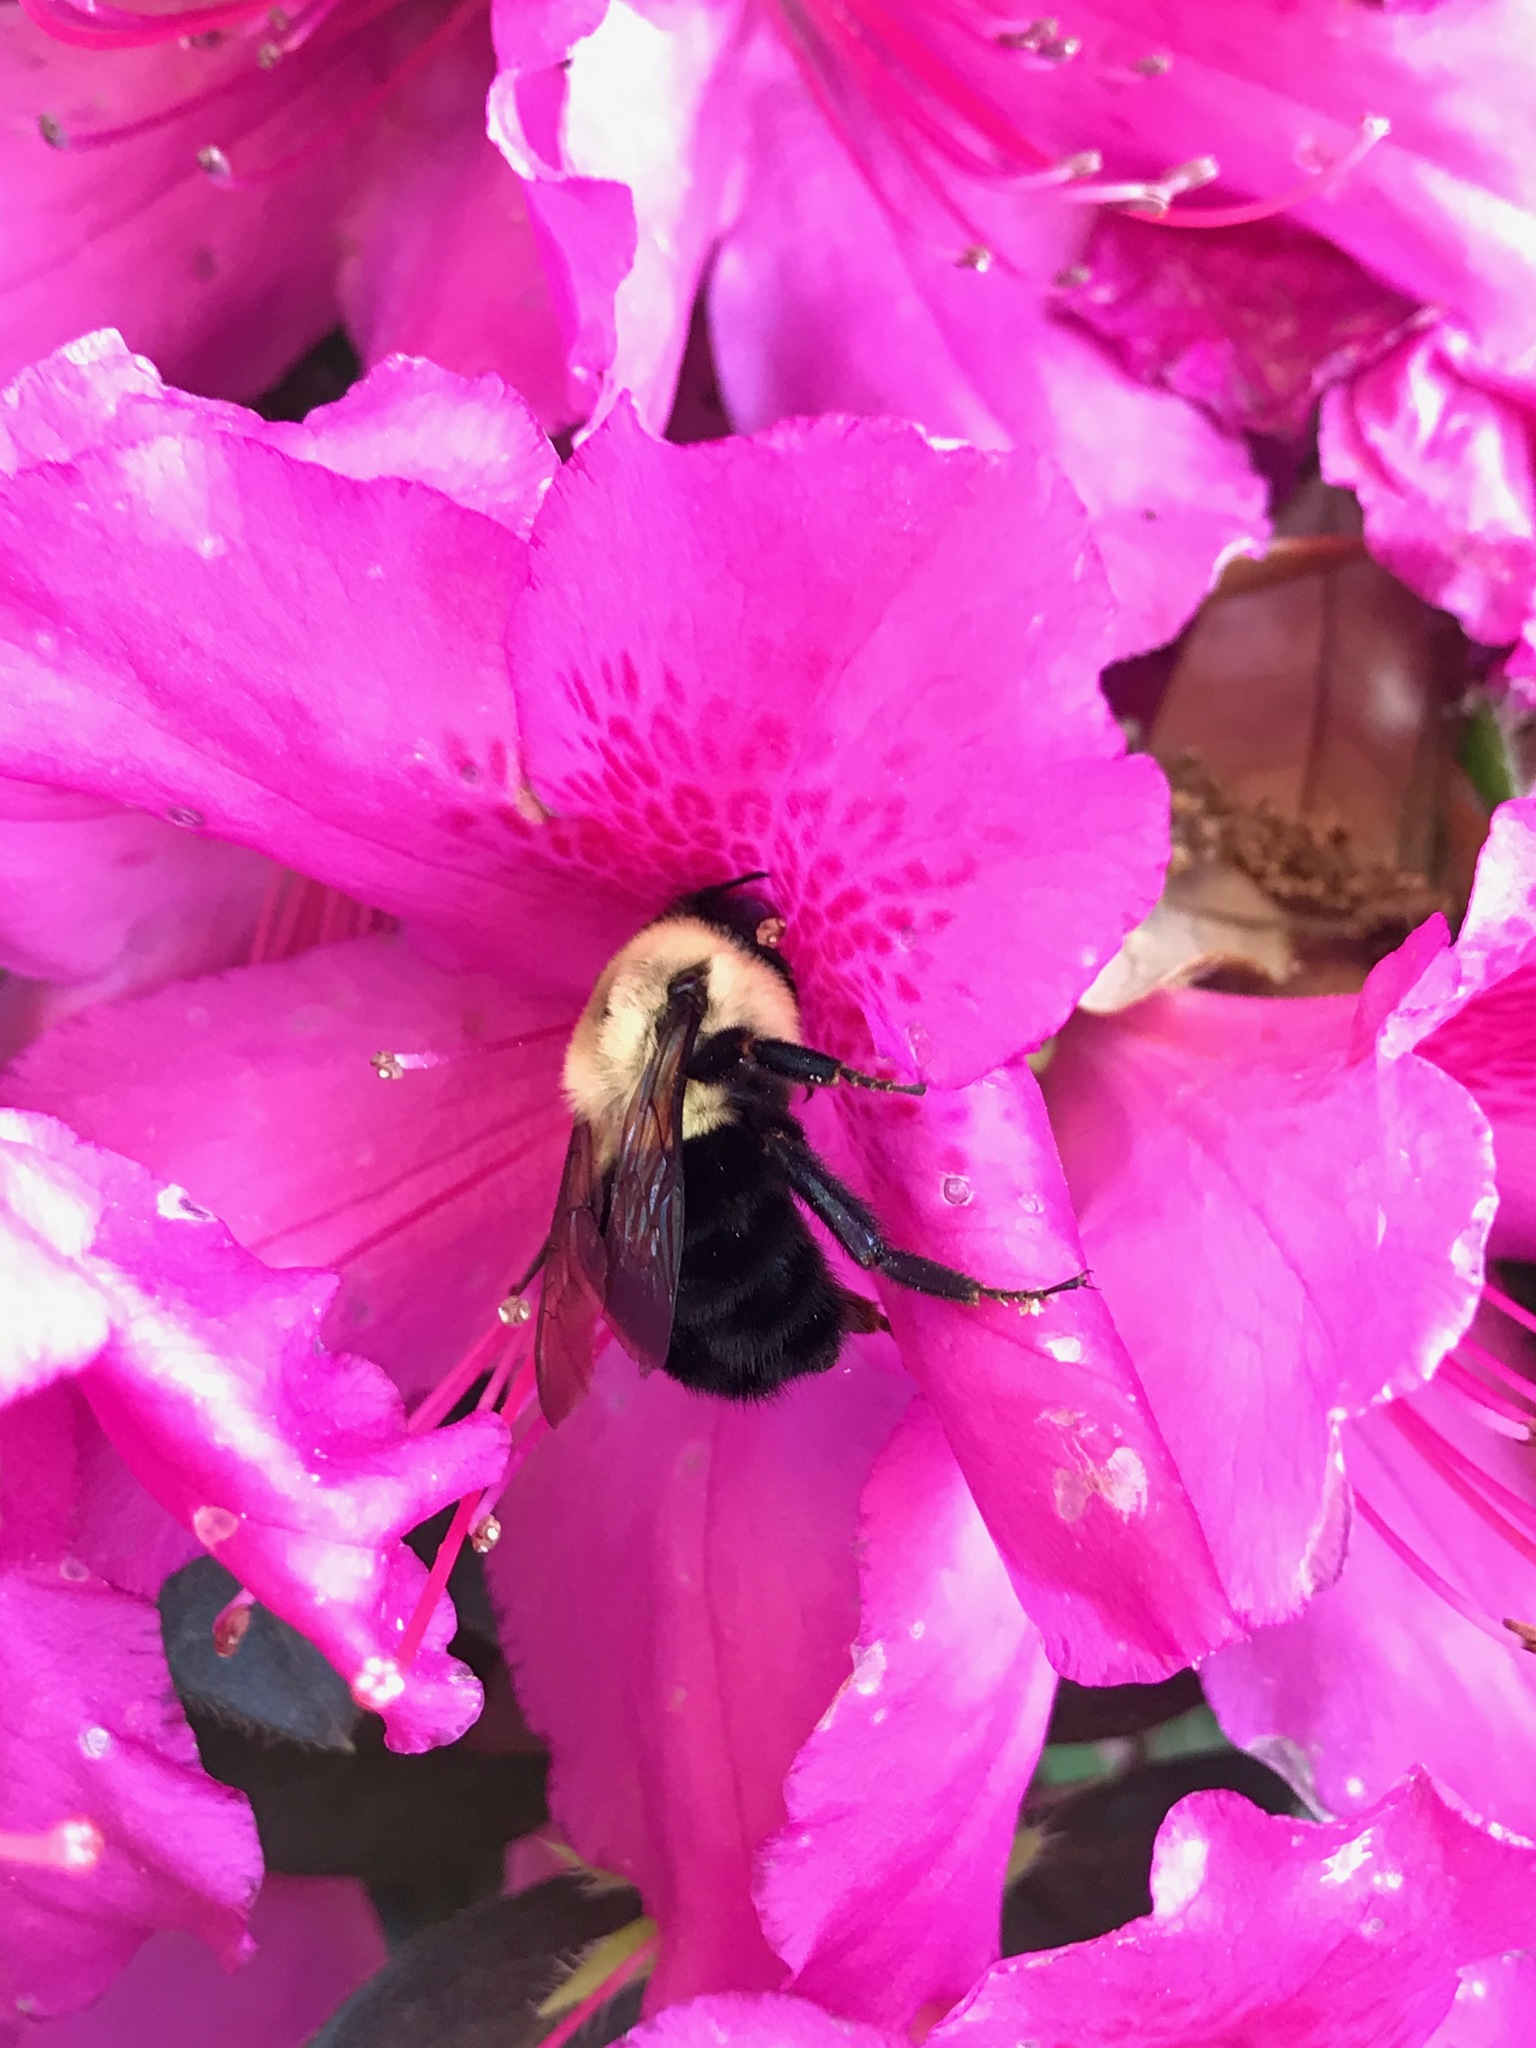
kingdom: Animalia
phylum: Arthropoda
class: Insecta
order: Hymenoptera
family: Apidae
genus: Bombus
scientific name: Bombus impatiens
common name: Common eastern bumble bee
